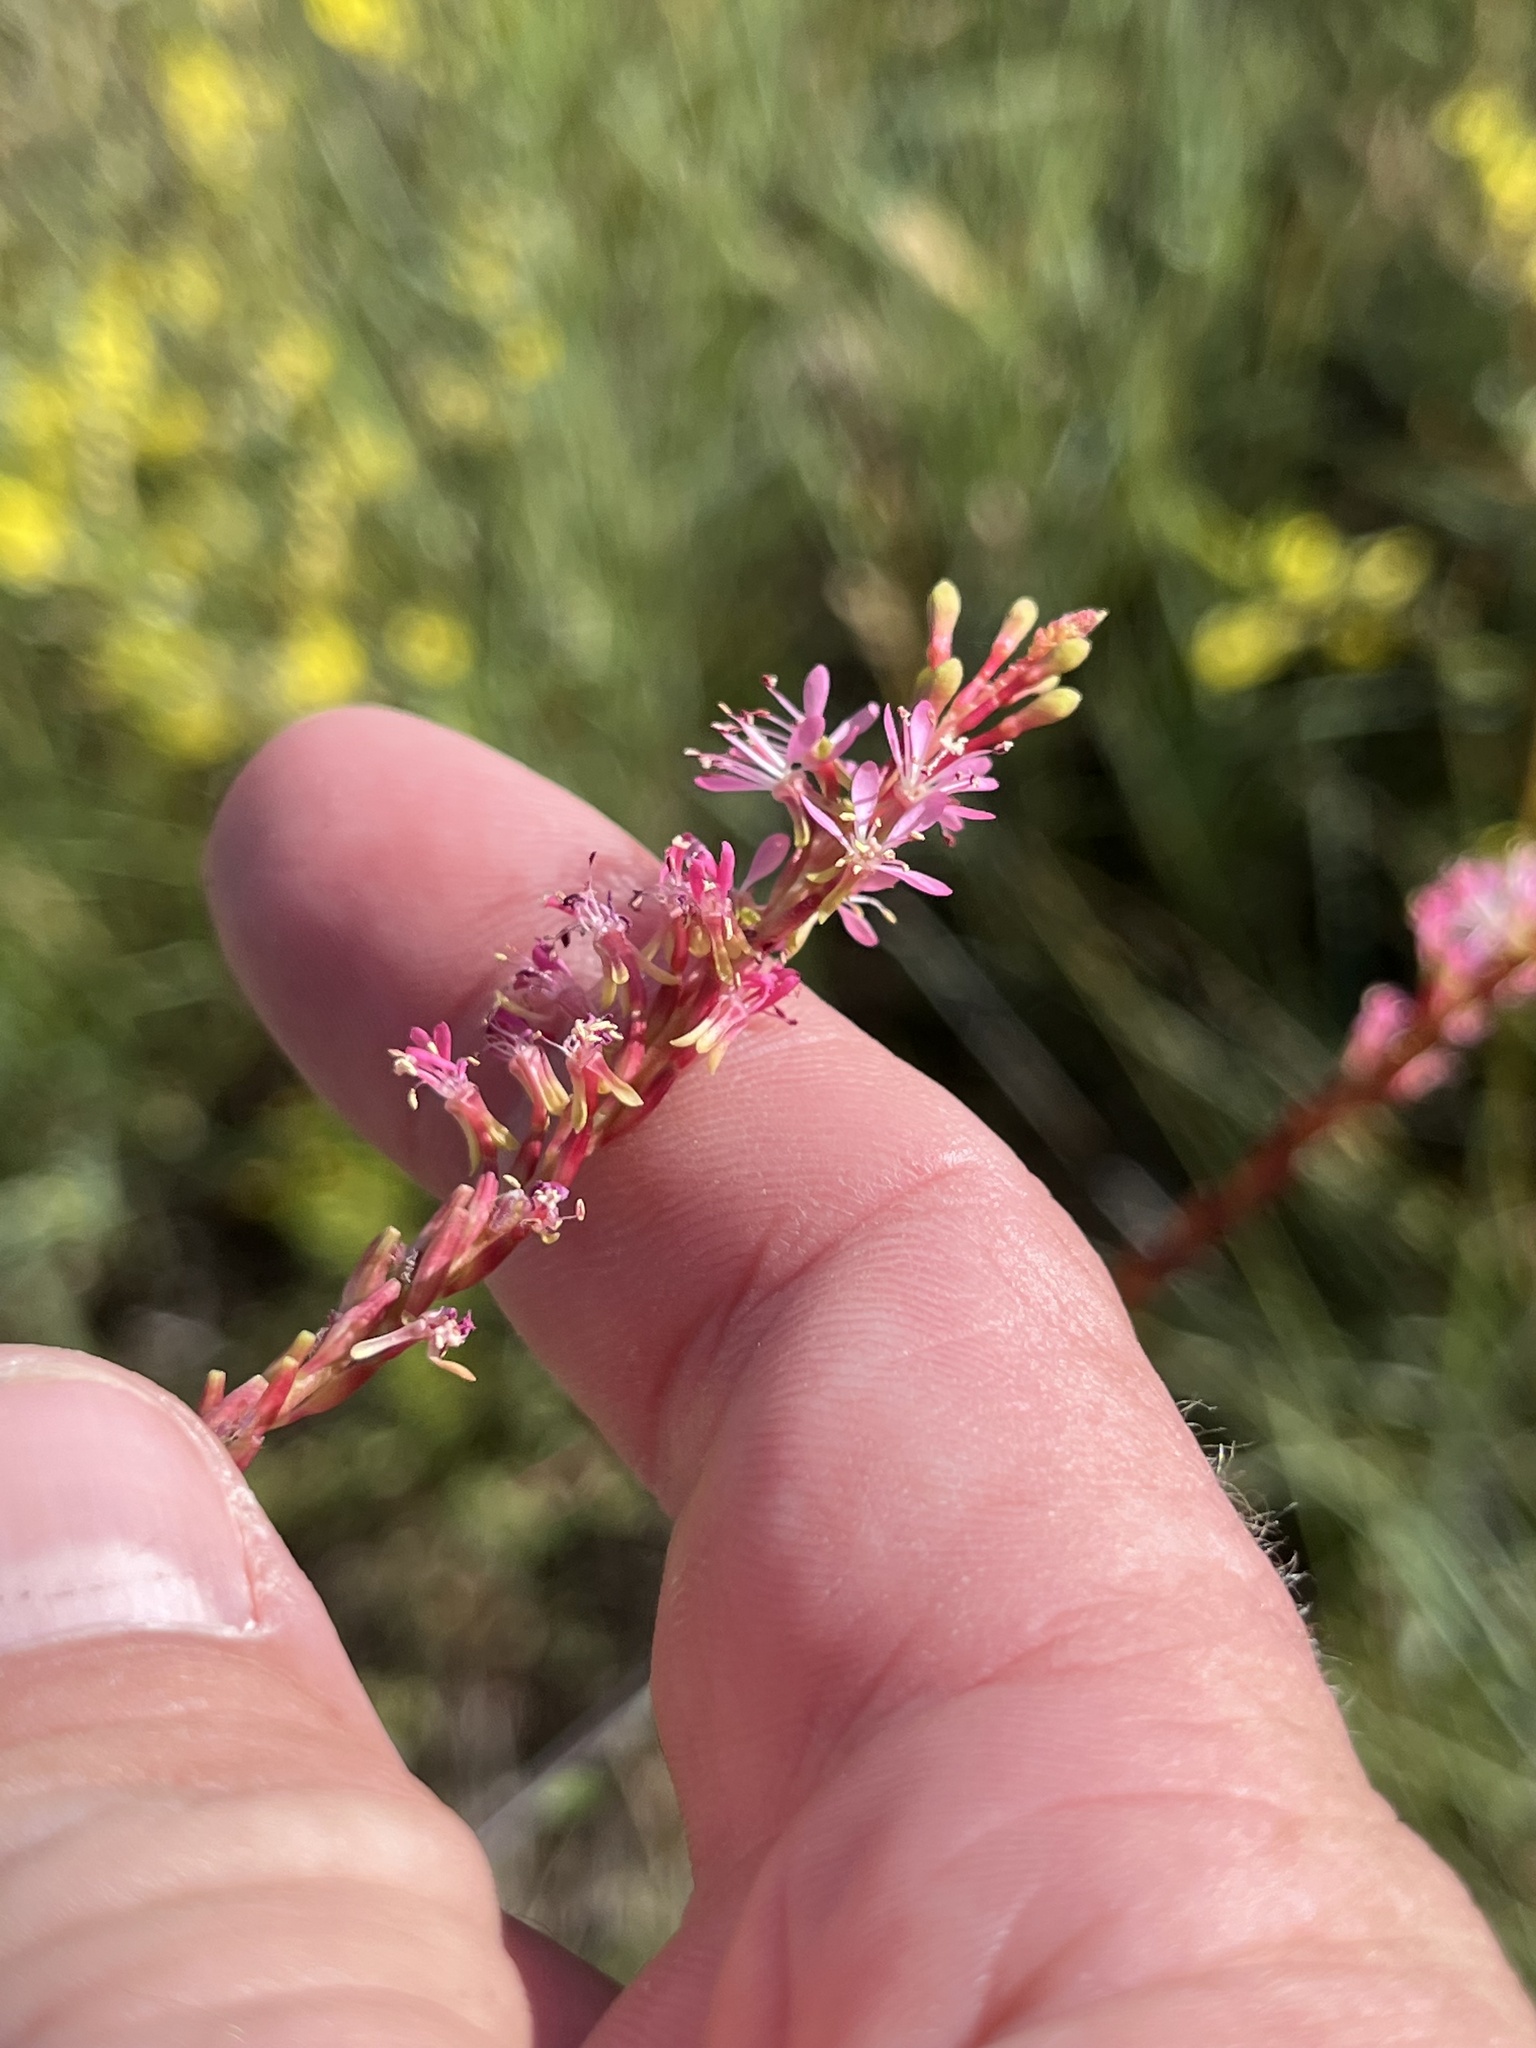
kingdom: Plantae
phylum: Tracheophyta
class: Magnoliopsida
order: Myrtales
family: Onagraceae
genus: Oenothera
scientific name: Oenothera curtiflora
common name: Velvetweed
